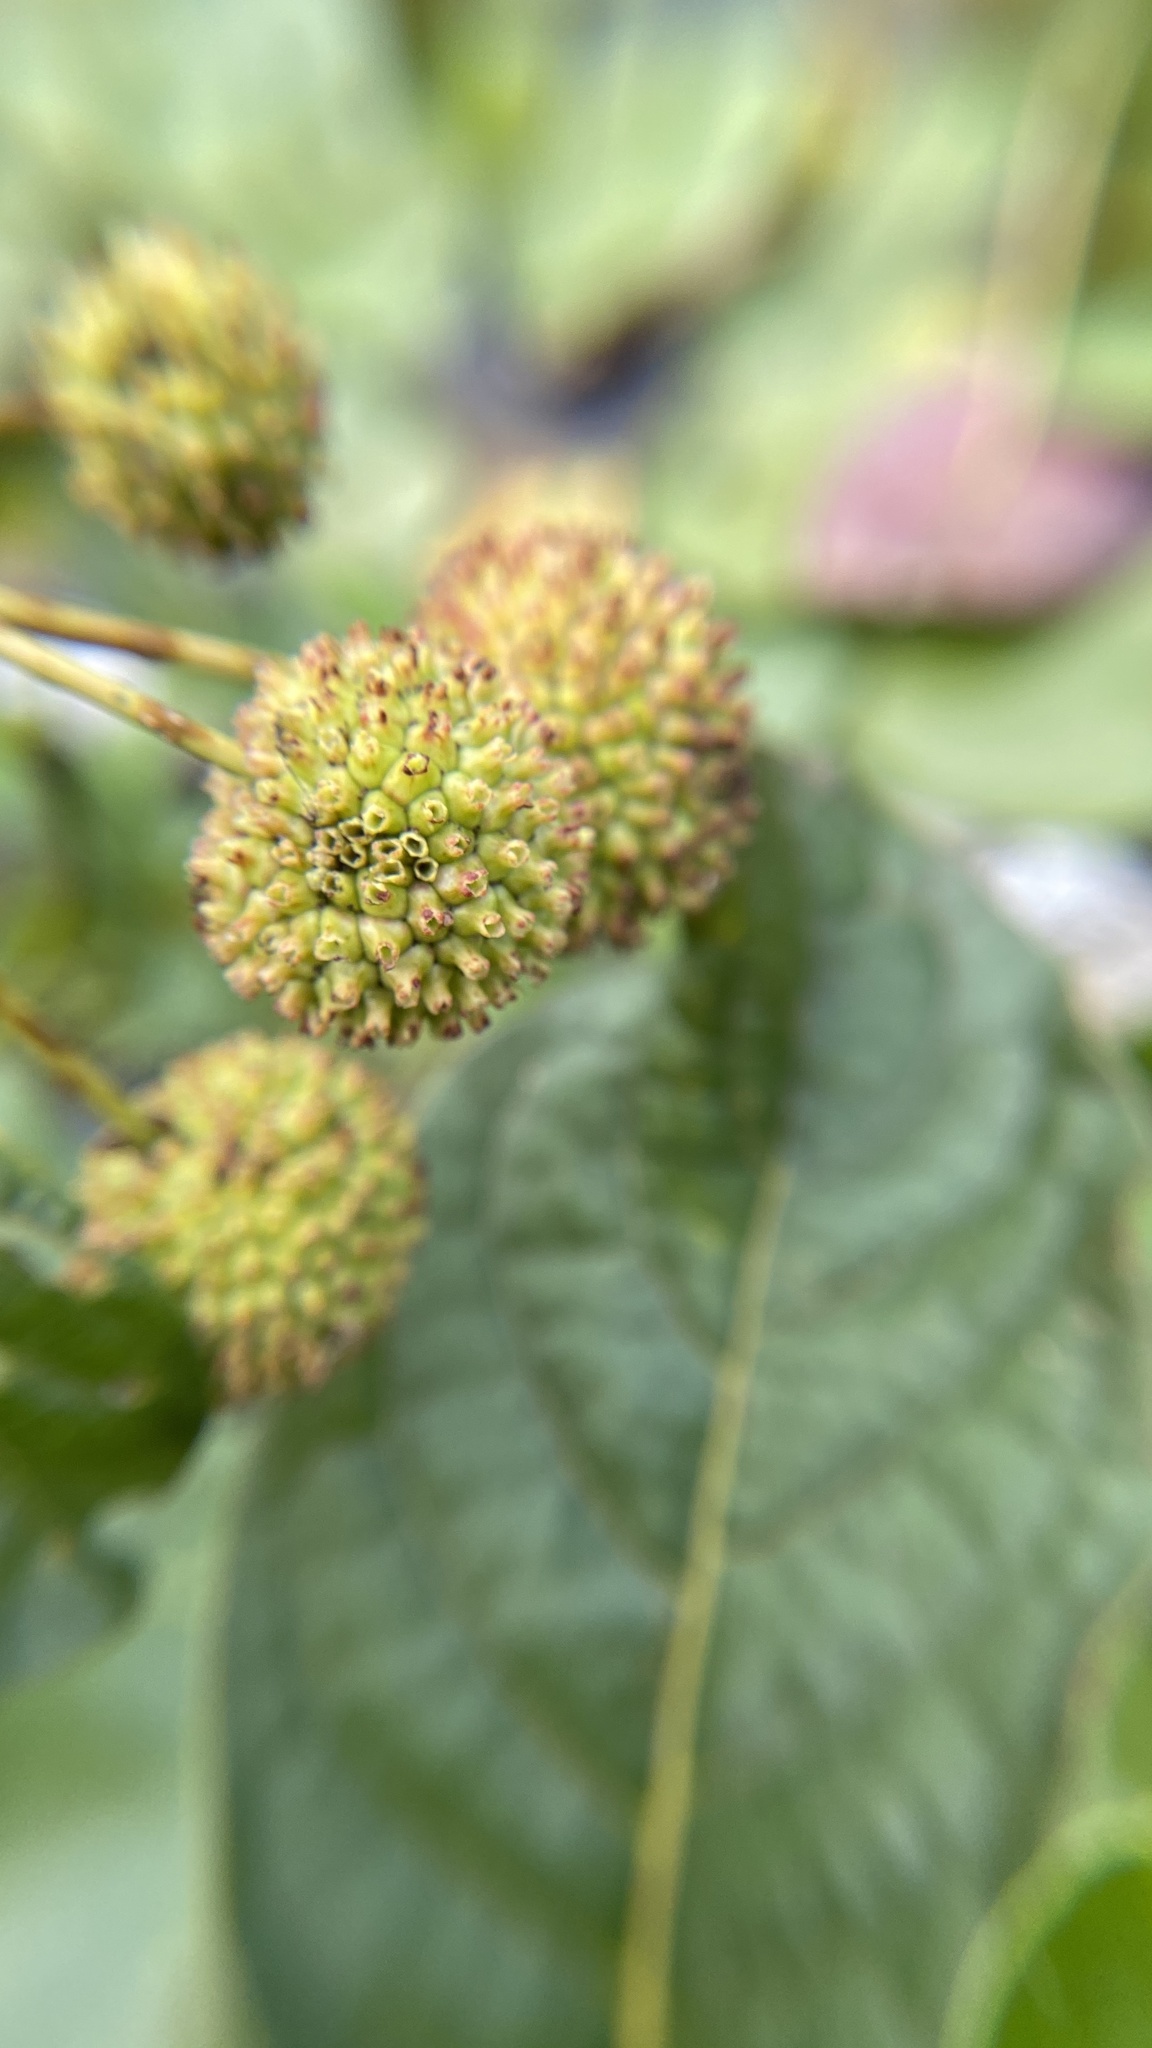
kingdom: Plantae
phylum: Tracheophyta
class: Magnoliopsida
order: Gentianales
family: Rubiaceae
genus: Cephalanthus
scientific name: Cephalanthus occidentalis
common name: Button-willow
